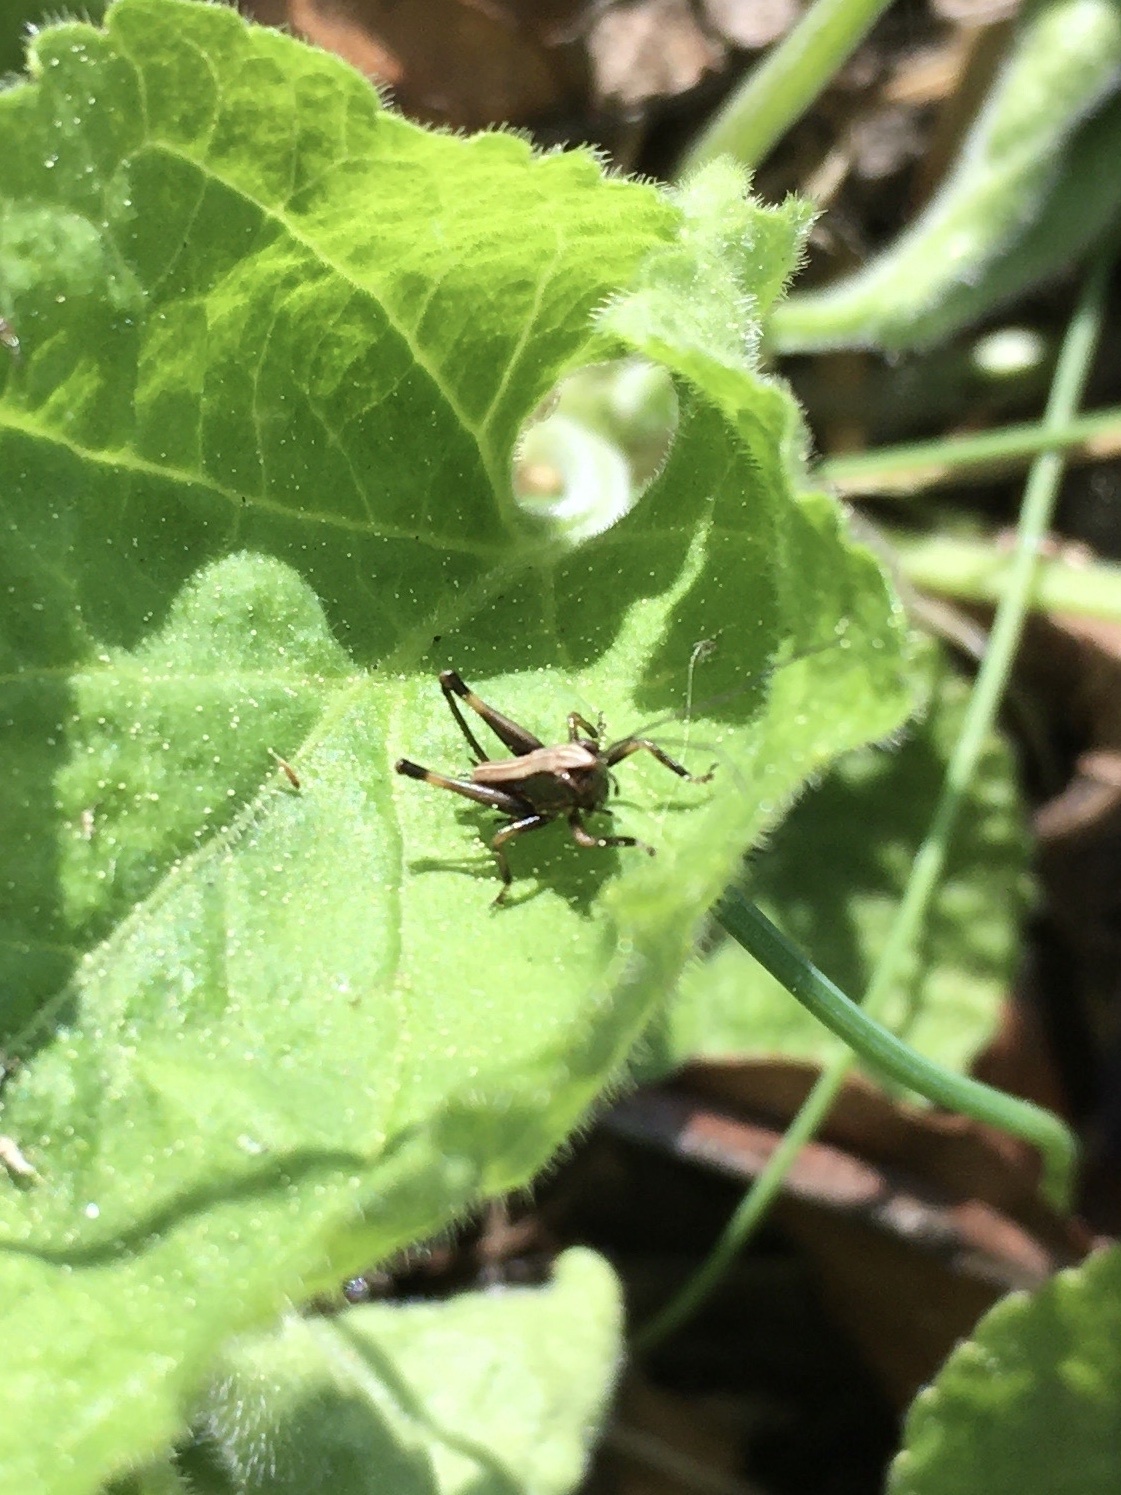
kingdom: Animalia
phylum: Arthropoda
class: Insecta
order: Orthoptera
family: Tettigoniidae
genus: Pholidoptera
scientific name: Pholidoptera griseoaptera
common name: Dark bush-cricket
